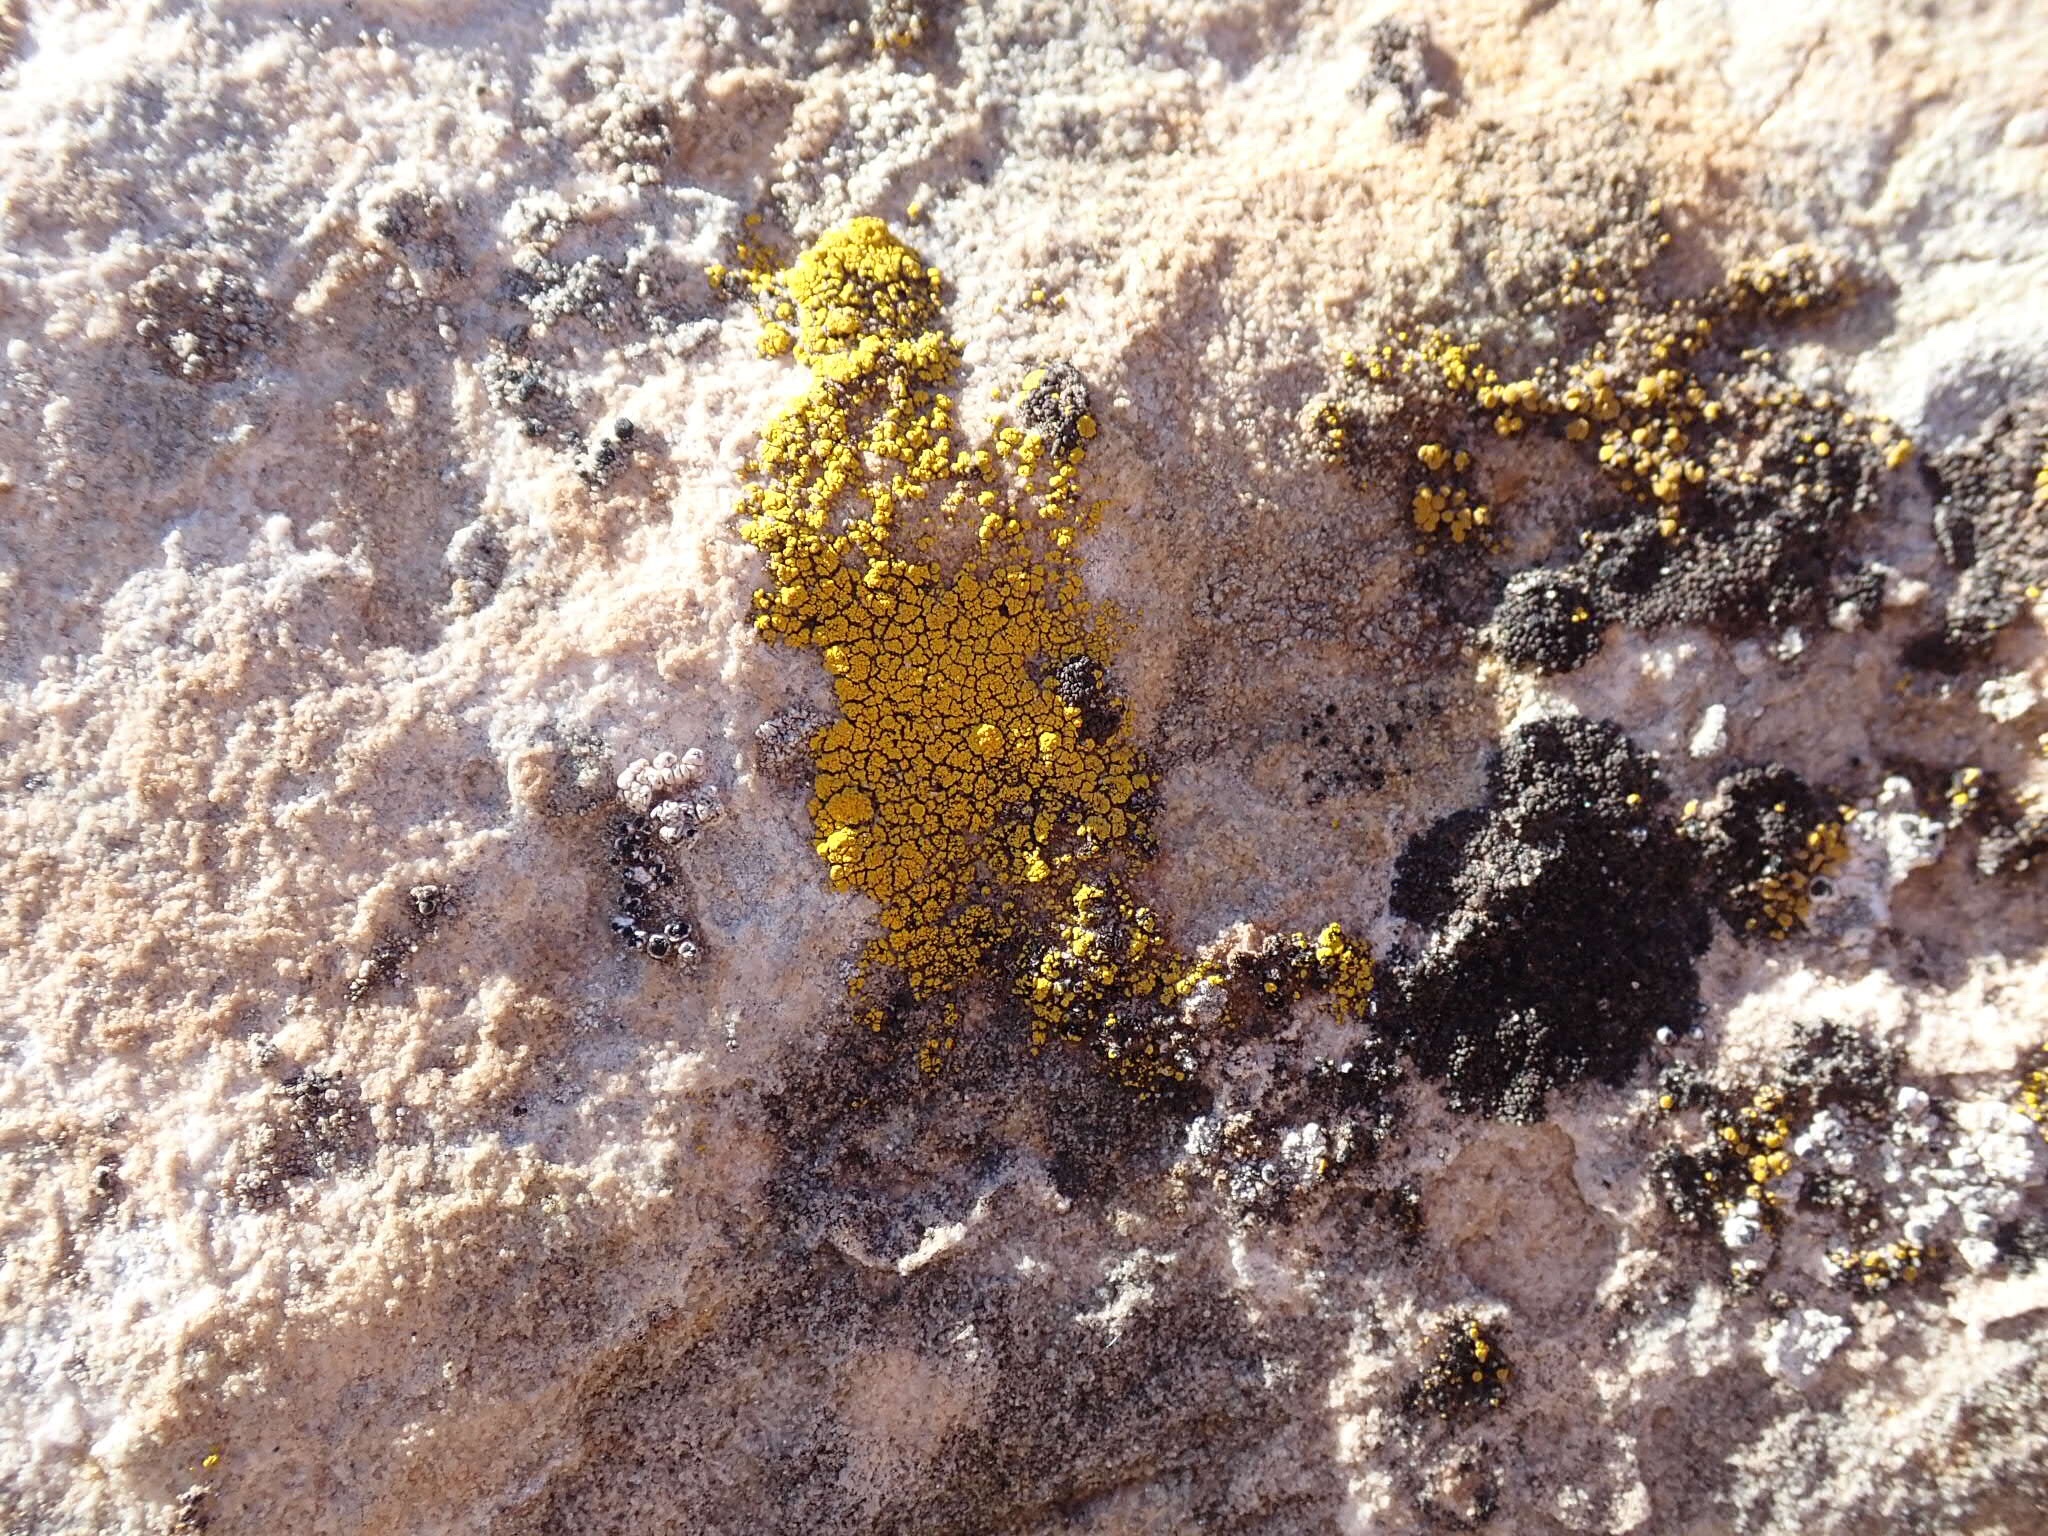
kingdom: Fungi
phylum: Ascomycota
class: Candelariomycetes
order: Candelariales
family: Candelariaceae
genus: Candelariella
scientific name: Candelariella rosulans
